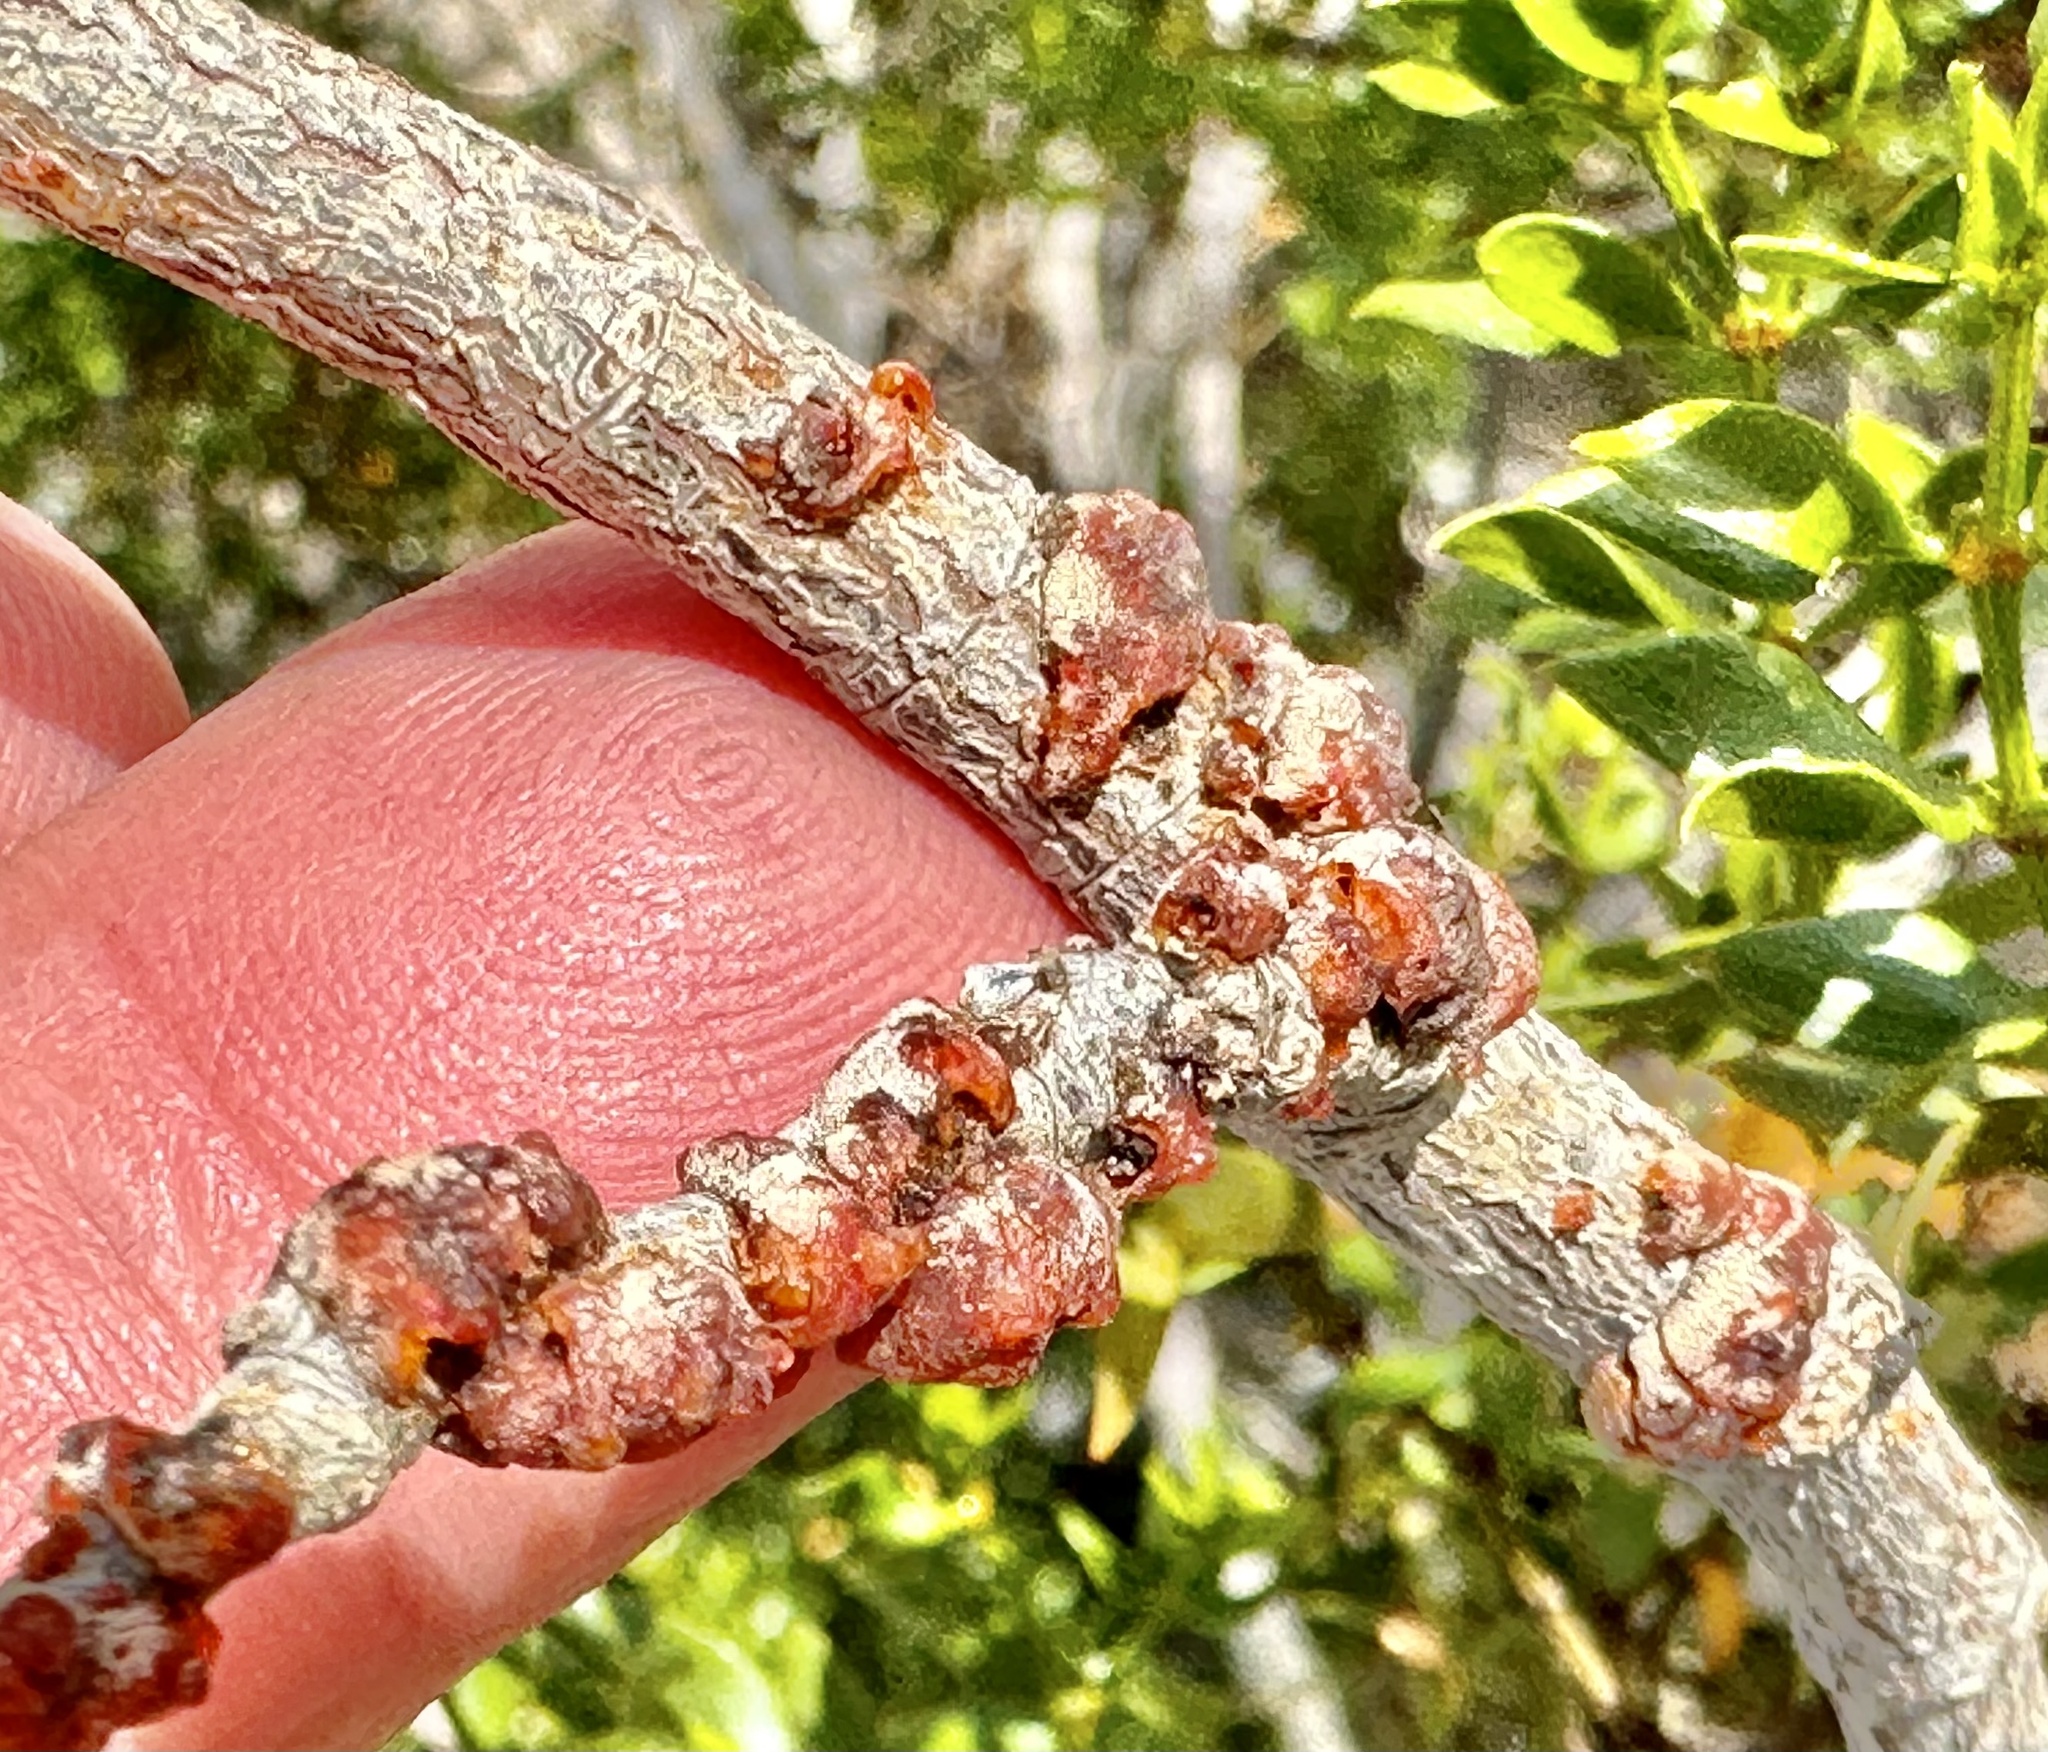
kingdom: Animalia
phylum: Arthropoda
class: Insecta
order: Hemiptera
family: Kerriidae
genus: Tachardiella
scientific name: Tachardiella larreae
